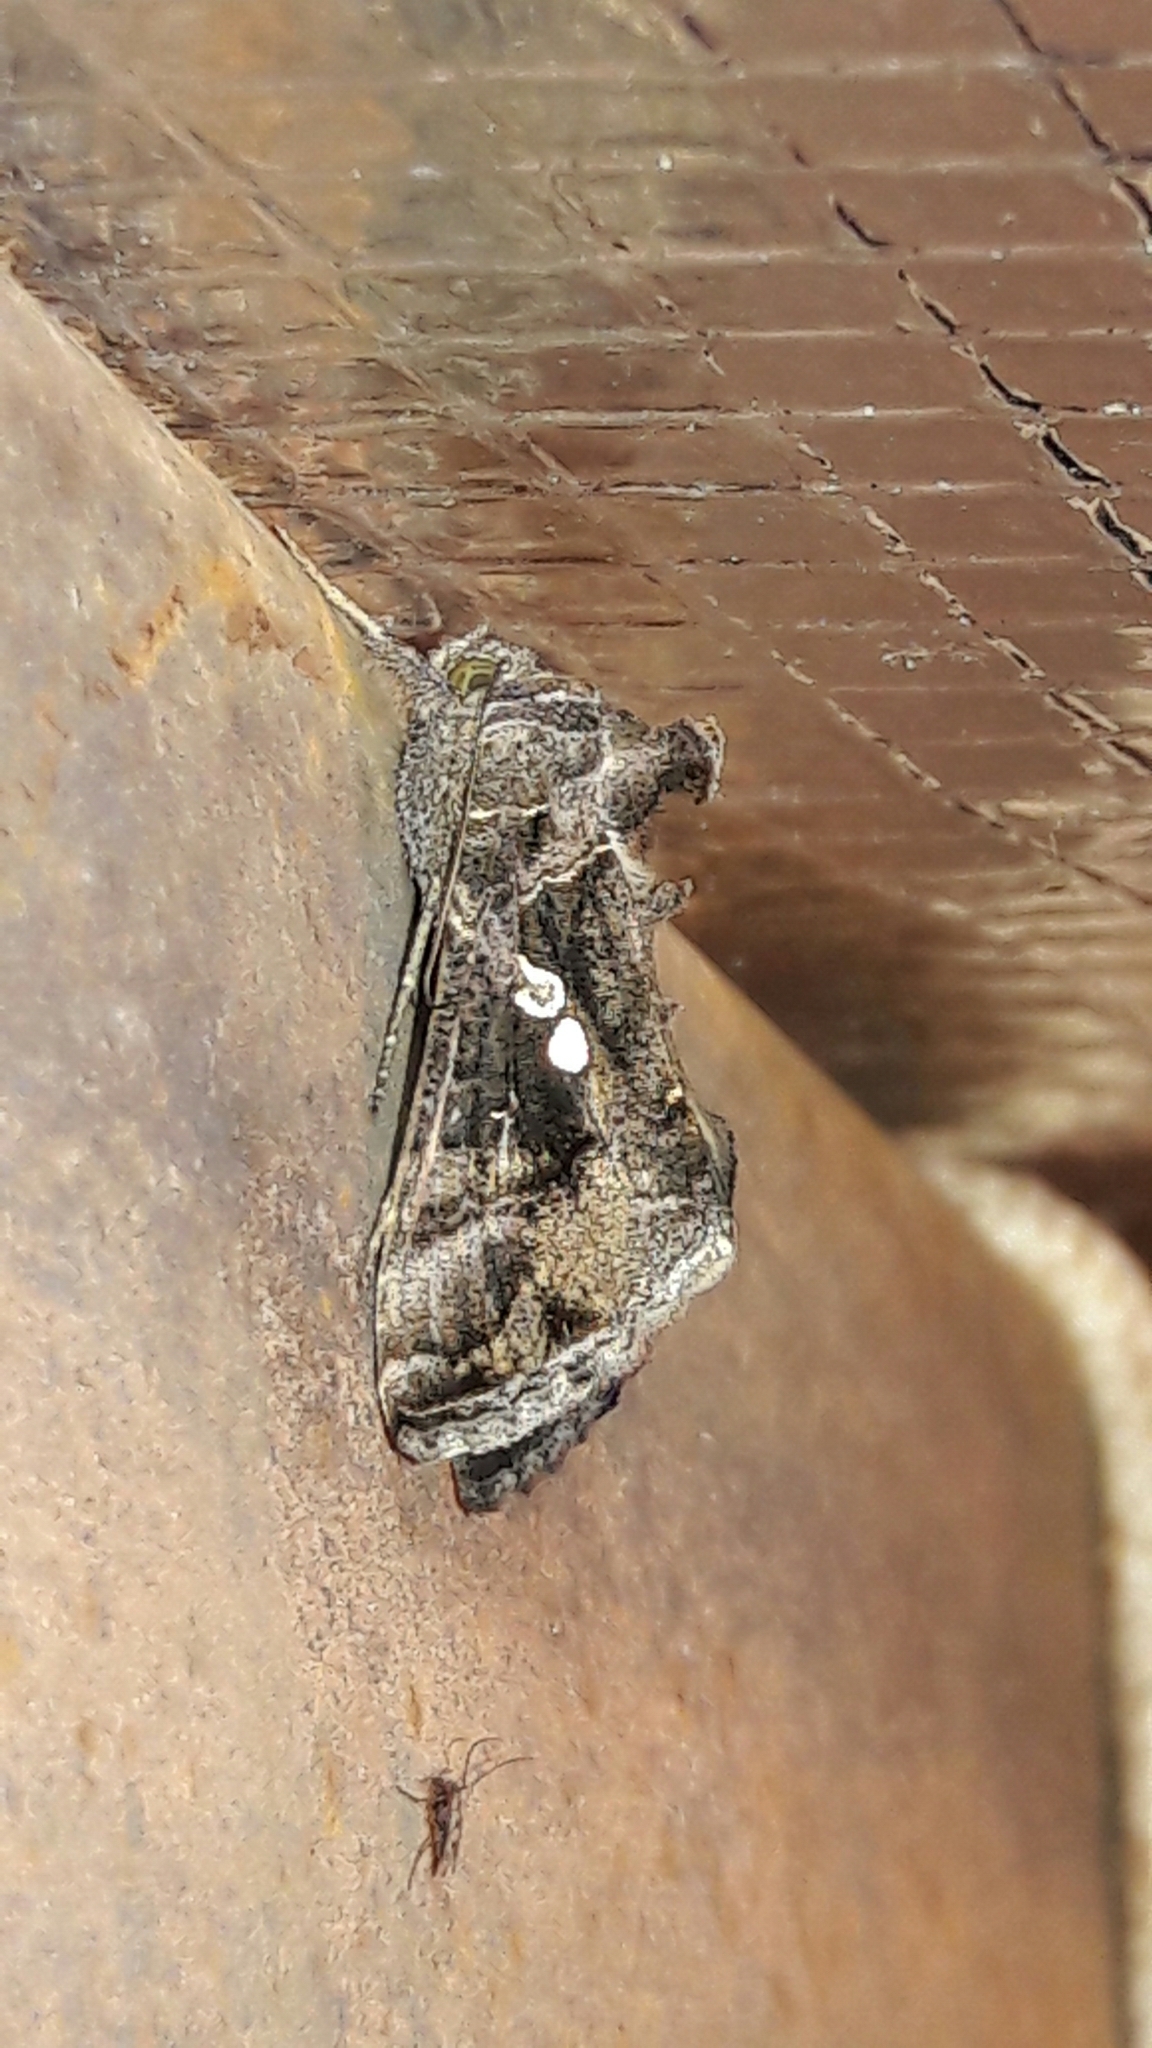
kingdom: Animalia
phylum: Arthropoda
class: Insecta
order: Lepidoptera
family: Noctuidae
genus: Chrysodeixis
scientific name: Chrysodeixis includens
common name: Cutworm moth
